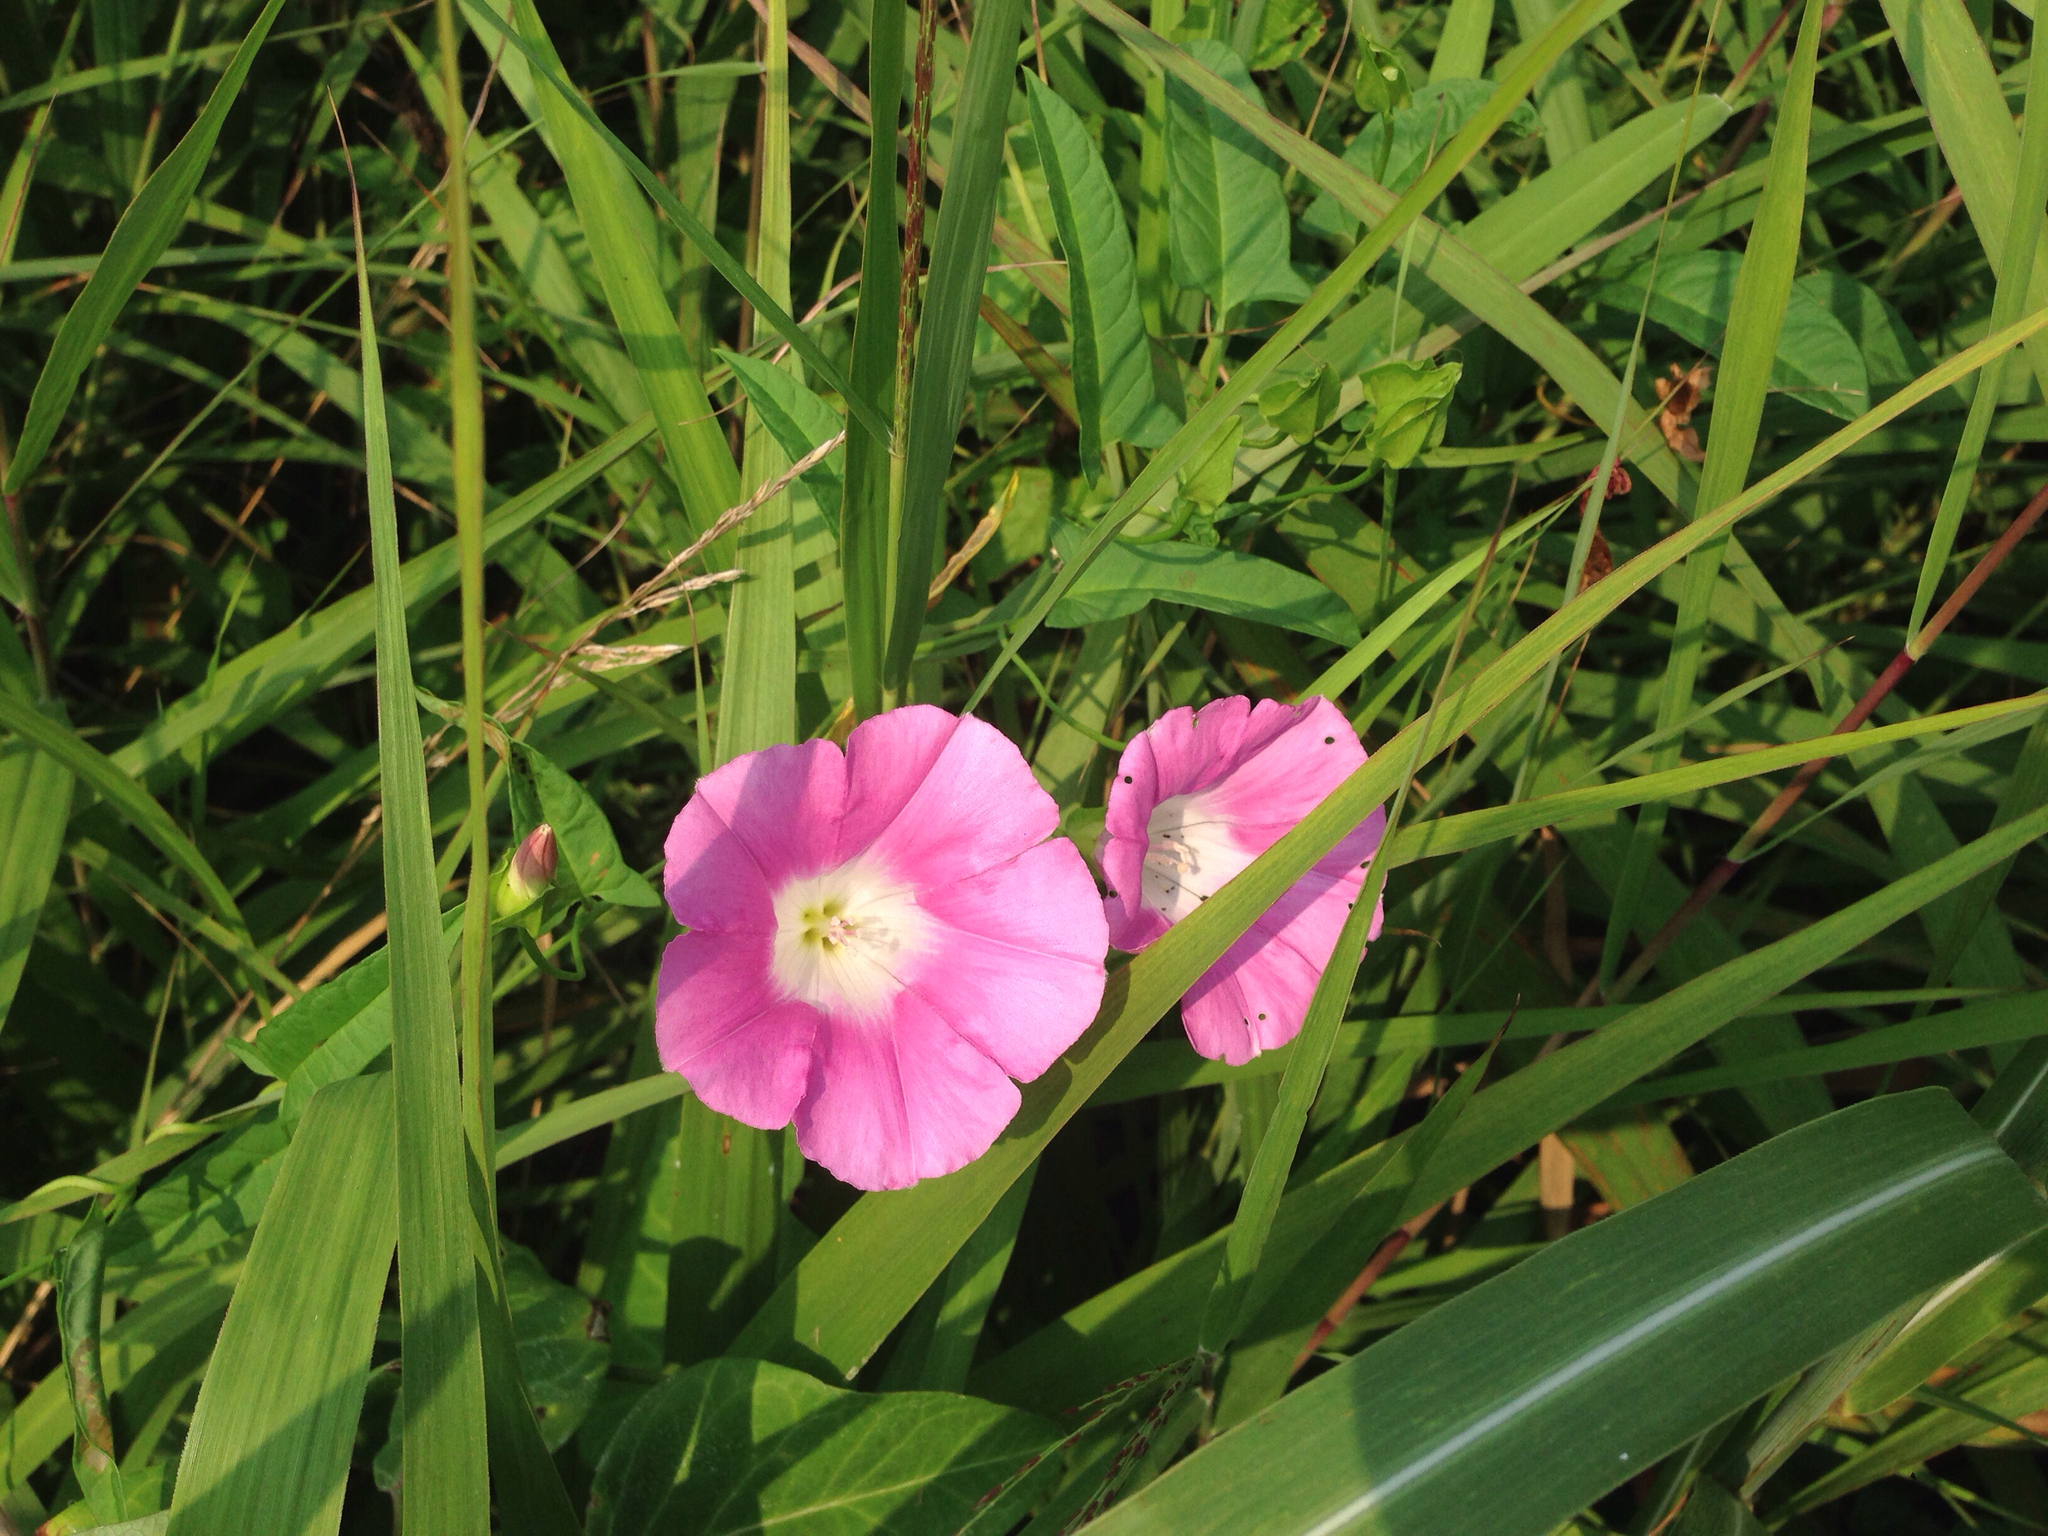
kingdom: Plantae
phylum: Tracheophyta
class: Magnoliopsida
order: Solanales
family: Convolvulaceae
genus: Calystegia
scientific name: Calystegia hederacea
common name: Japanese false bindweed
